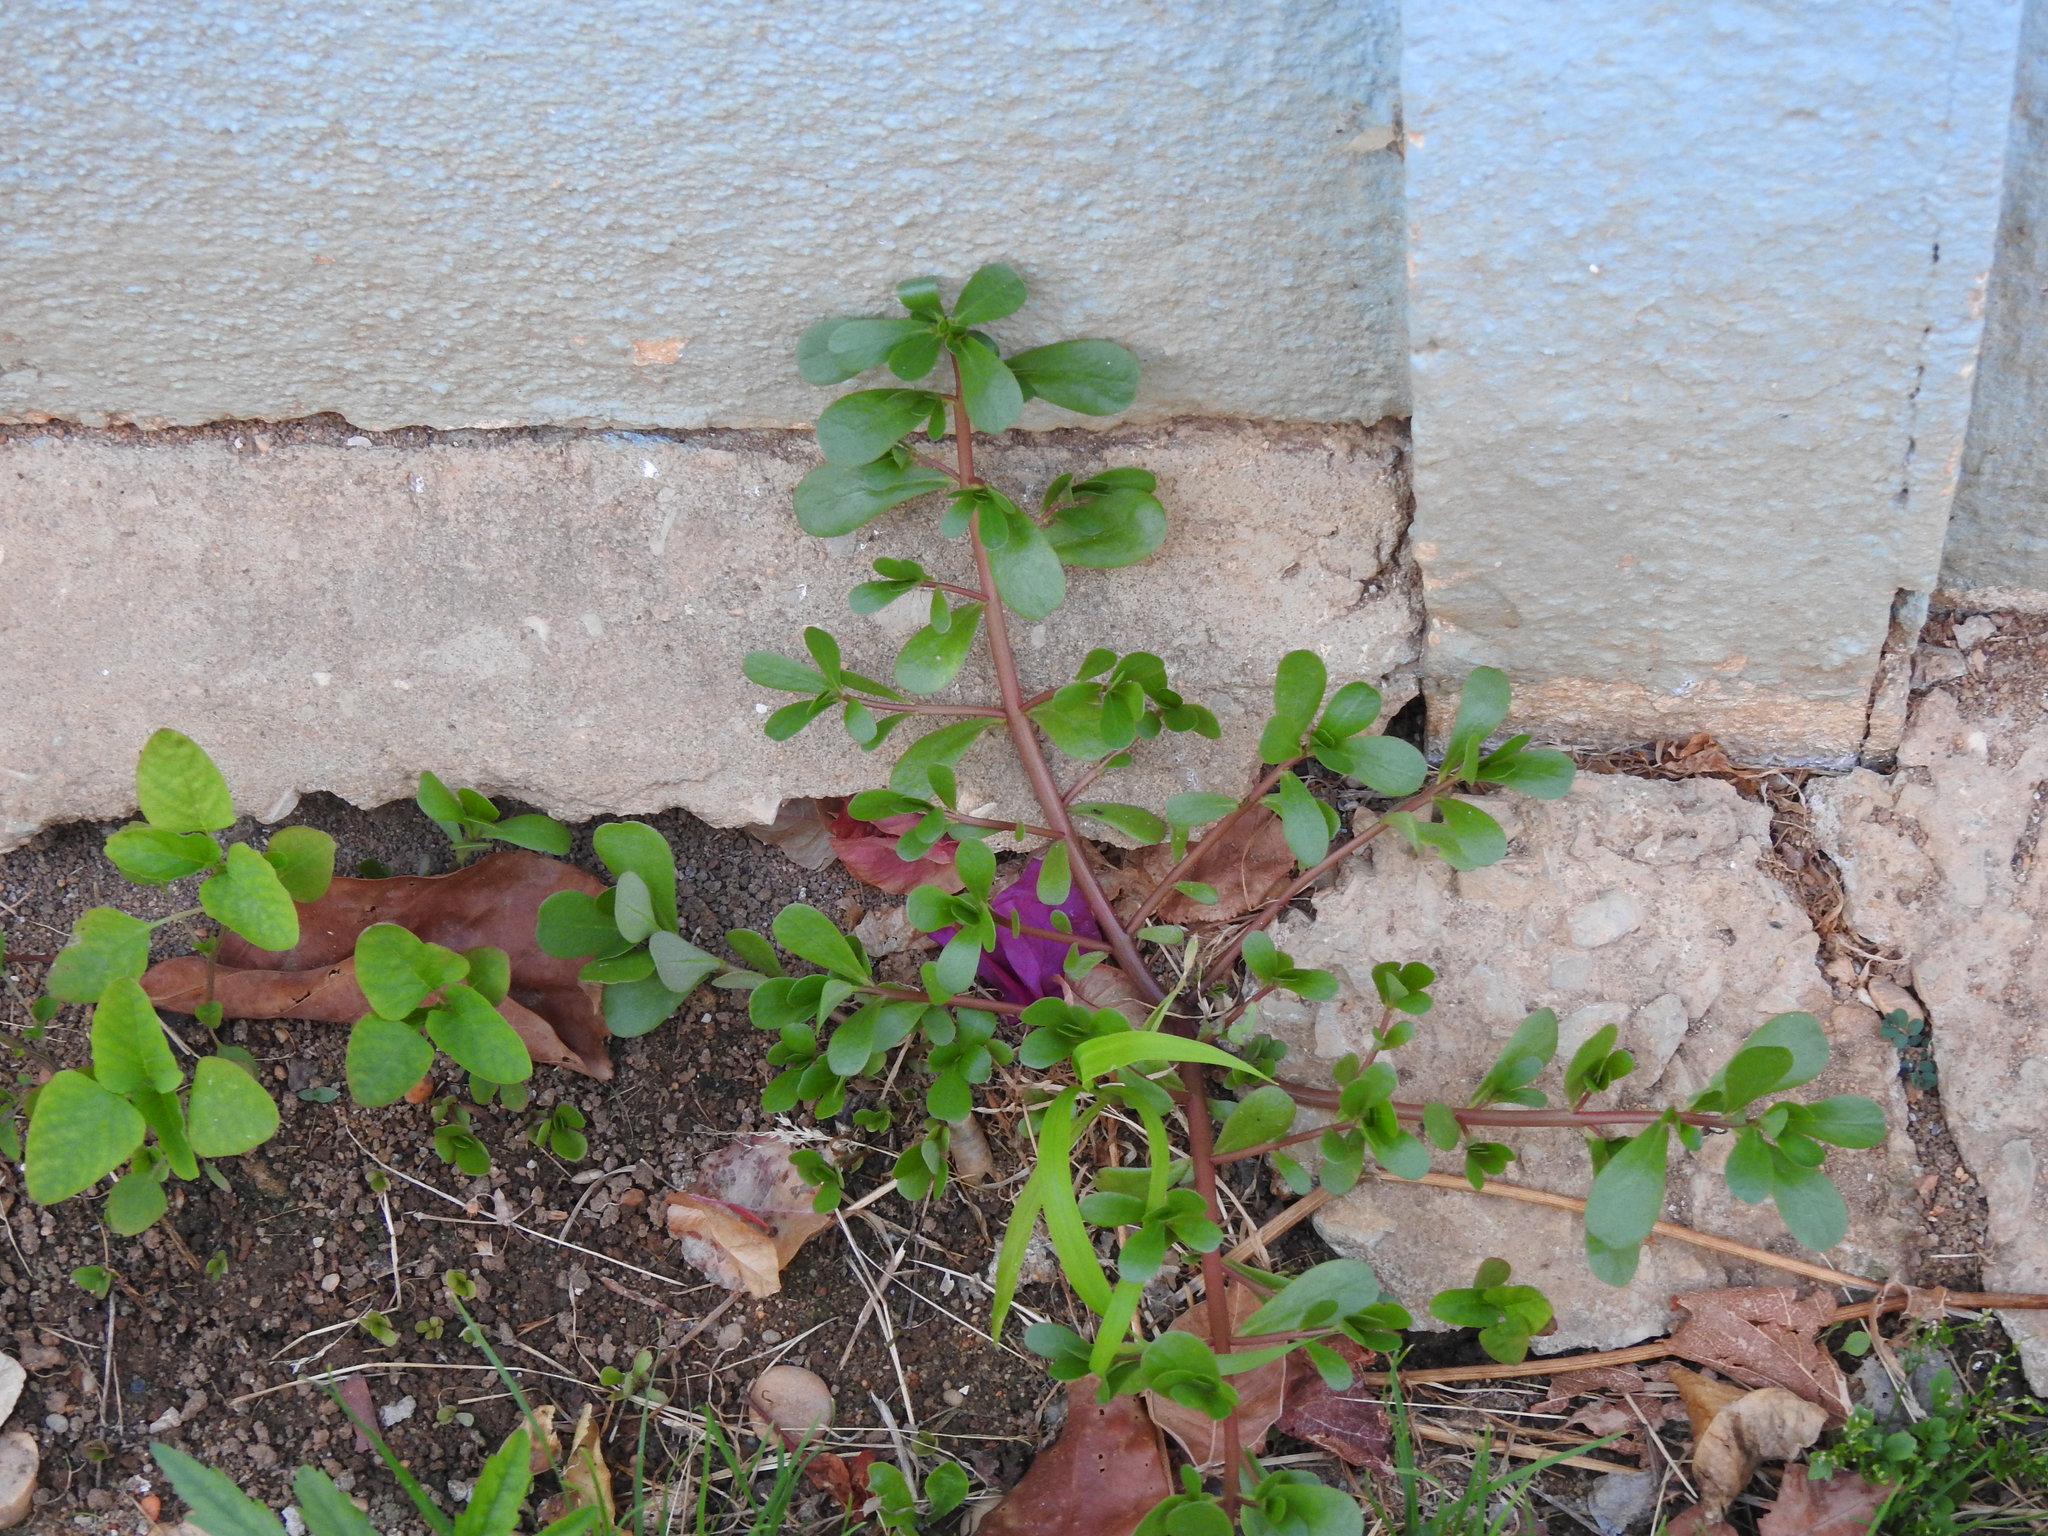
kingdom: Plantae
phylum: Tracheophyta
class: Magnoliopsida
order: Caryophyllales
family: Portulacaceae
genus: Portulaca
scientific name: Portulaca oleracea
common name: Common purslane
